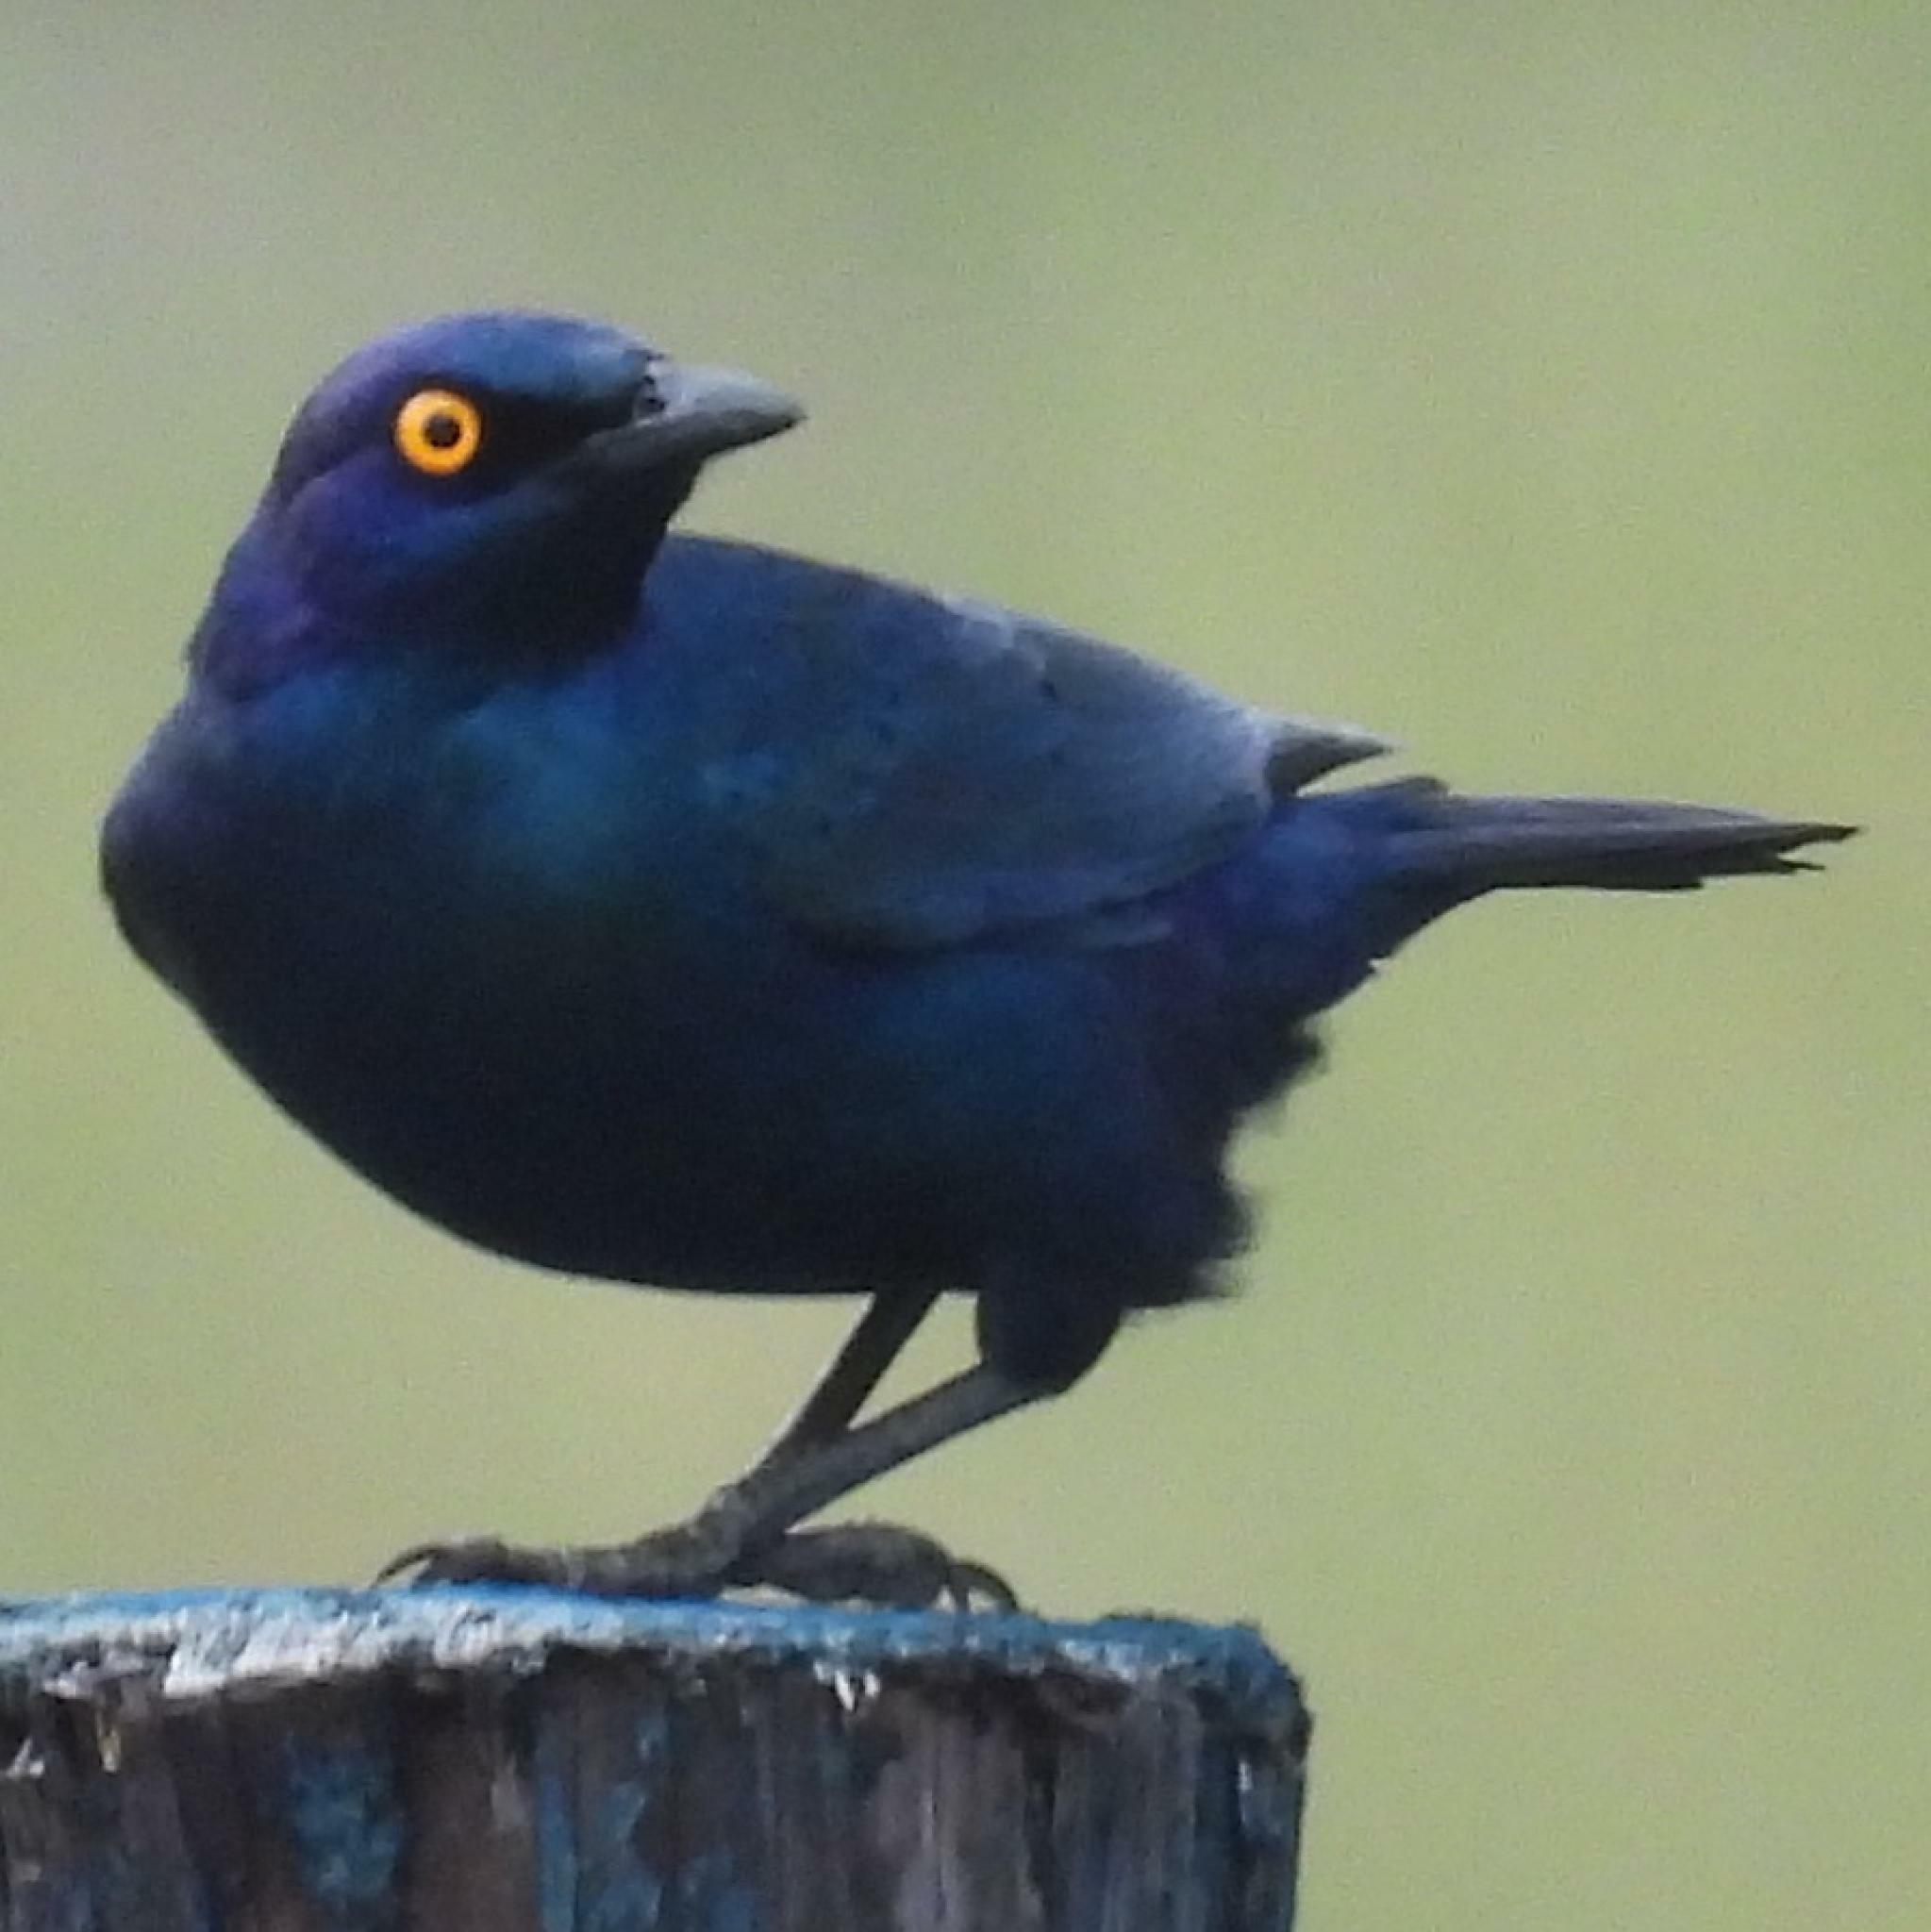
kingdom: Animalia
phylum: Chordata
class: Aves
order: Passeriformes
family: Sturnidae
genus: Lamprotornis
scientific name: Lamprotornis nitens
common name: Cape starling
